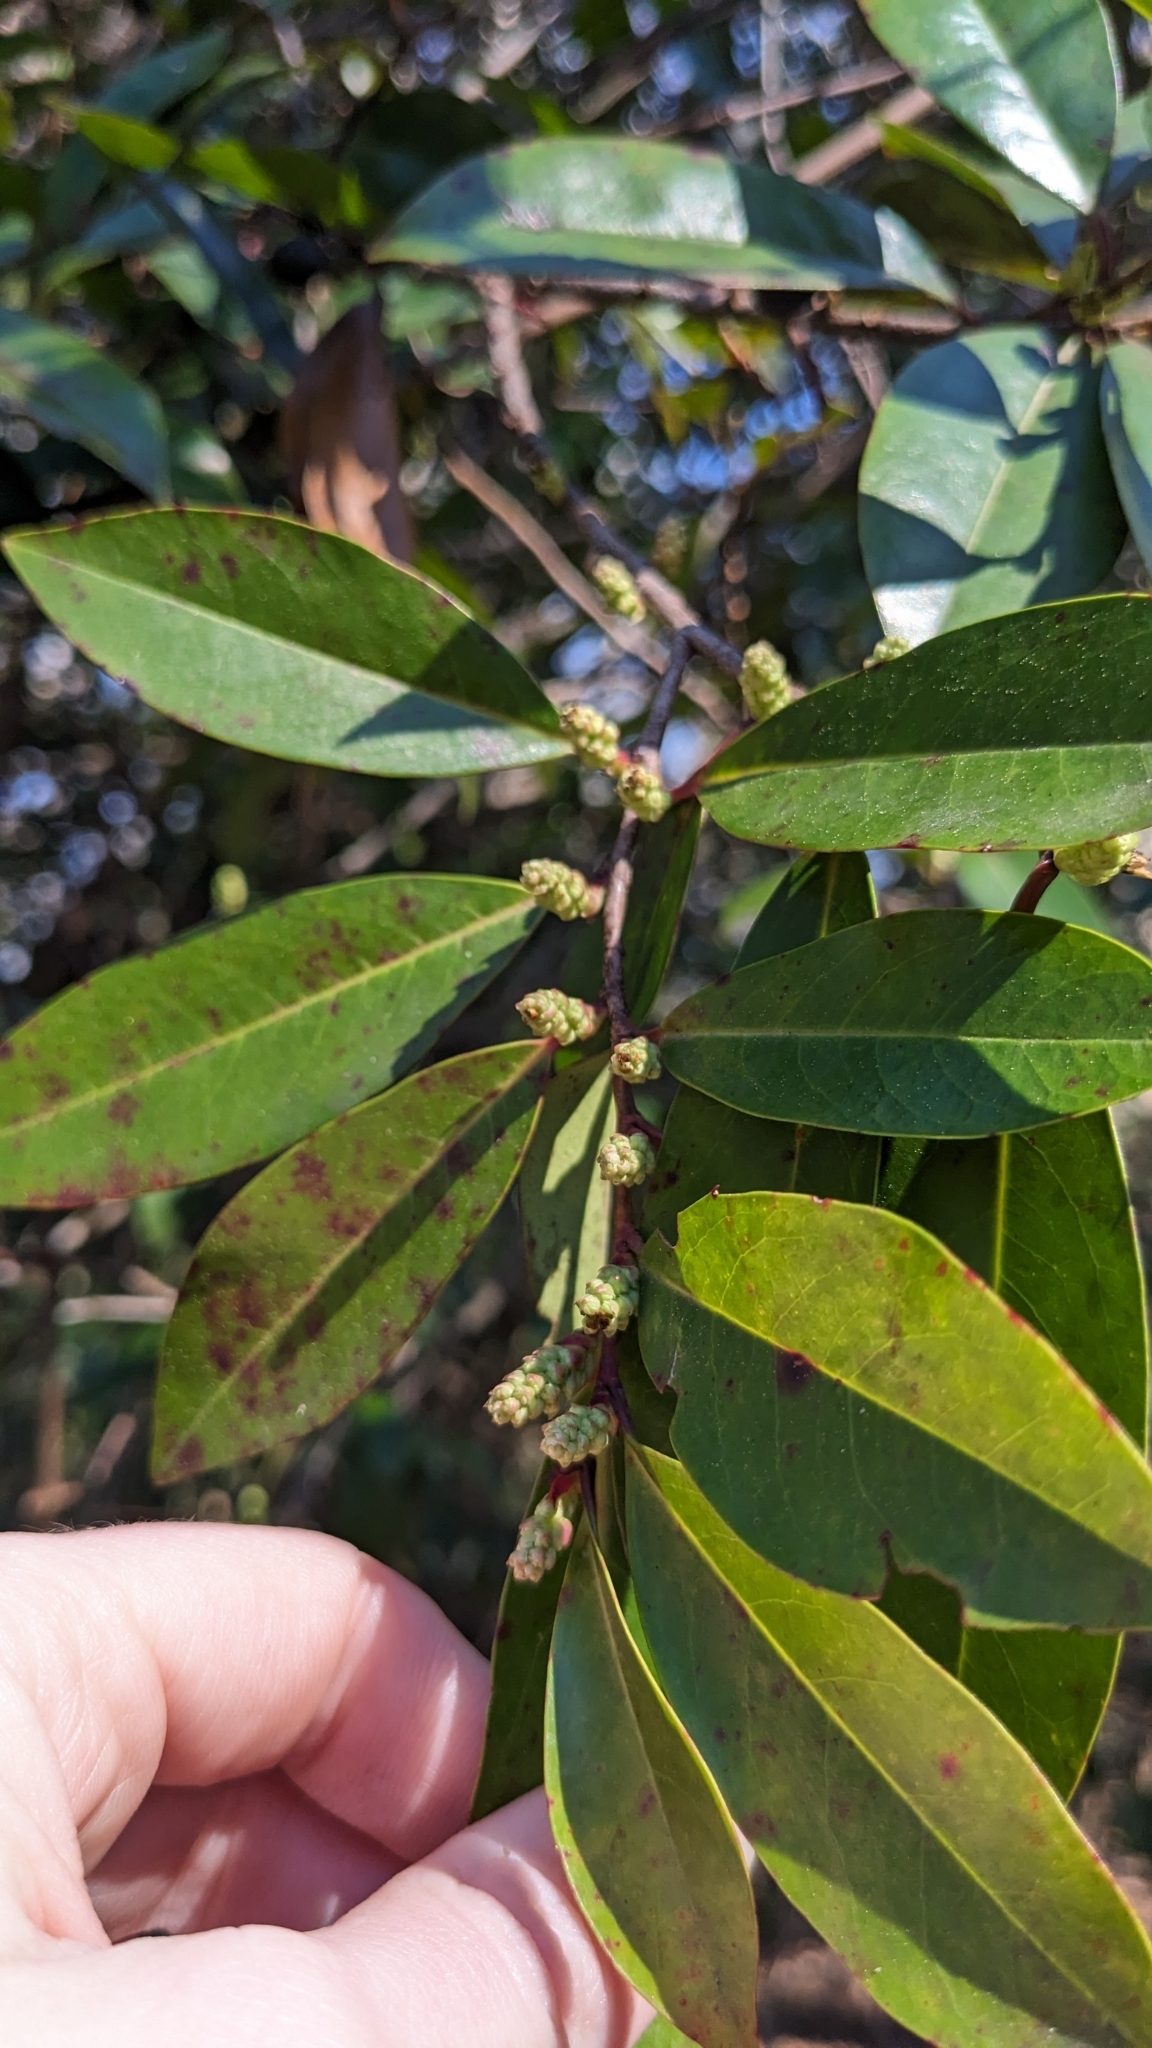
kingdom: Plantae
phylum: Tracheophyta
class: Magnoliopsida
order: Rosales
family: Rosaceae
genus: Prunus
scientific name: Prunus caroliniana
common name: Carolina laurel cherry
